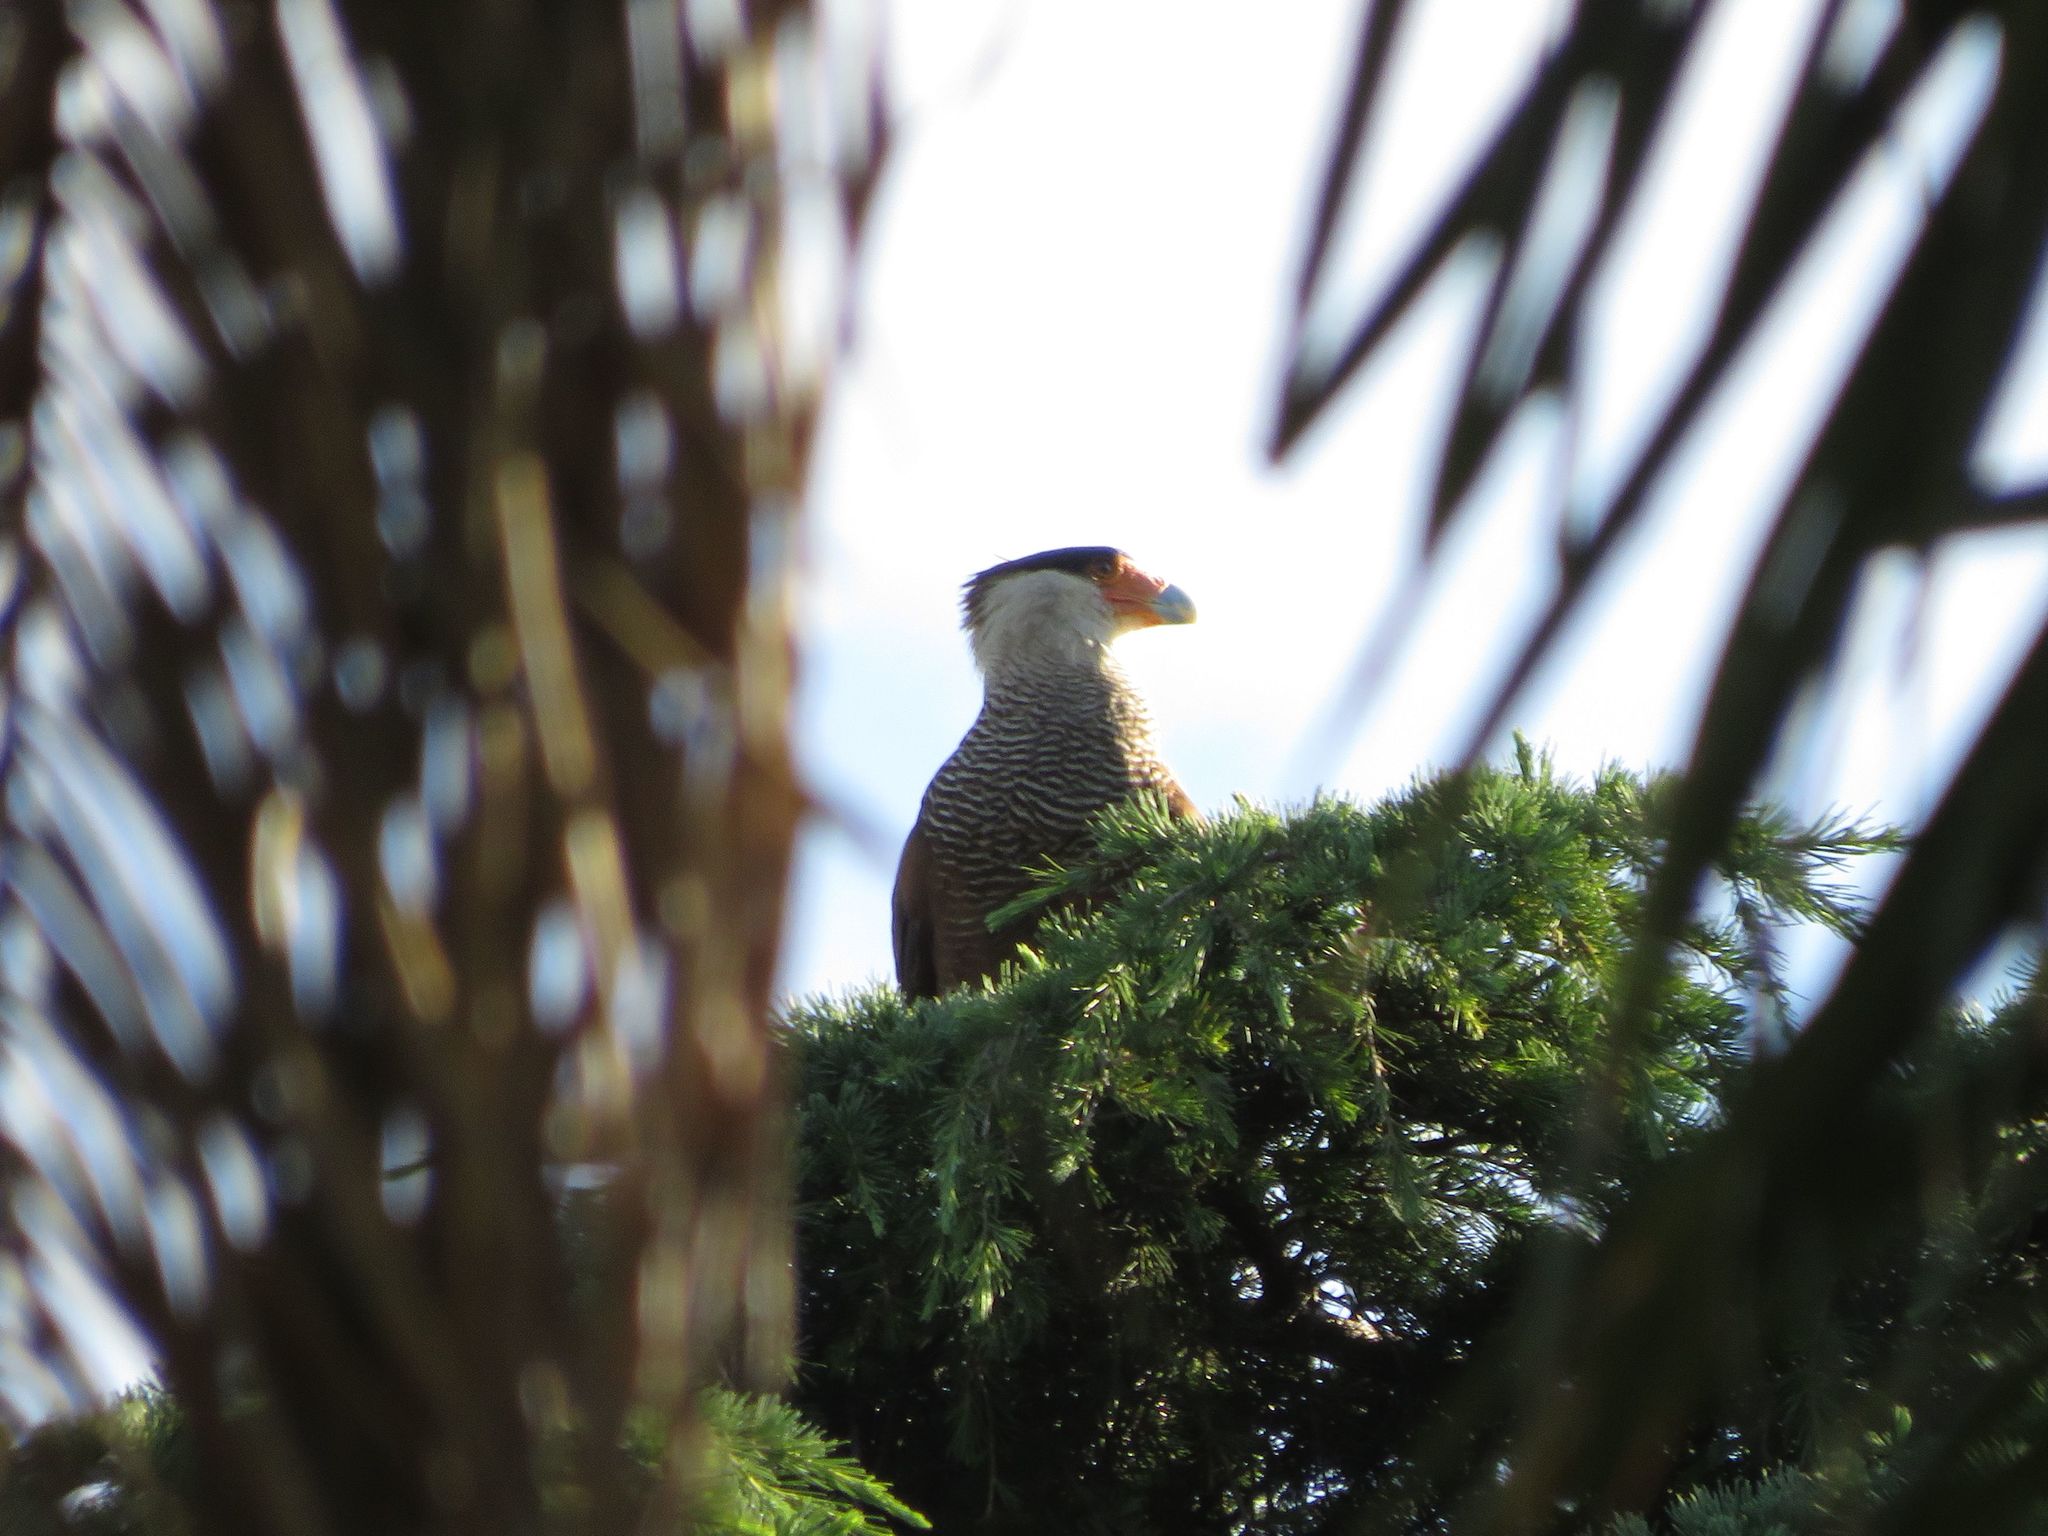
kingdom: Animalia
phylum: Chordata
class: Aves
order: Falconiformes
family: Falconidae
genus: Caracara
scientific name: Caracara plancus
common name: Southern caracara
